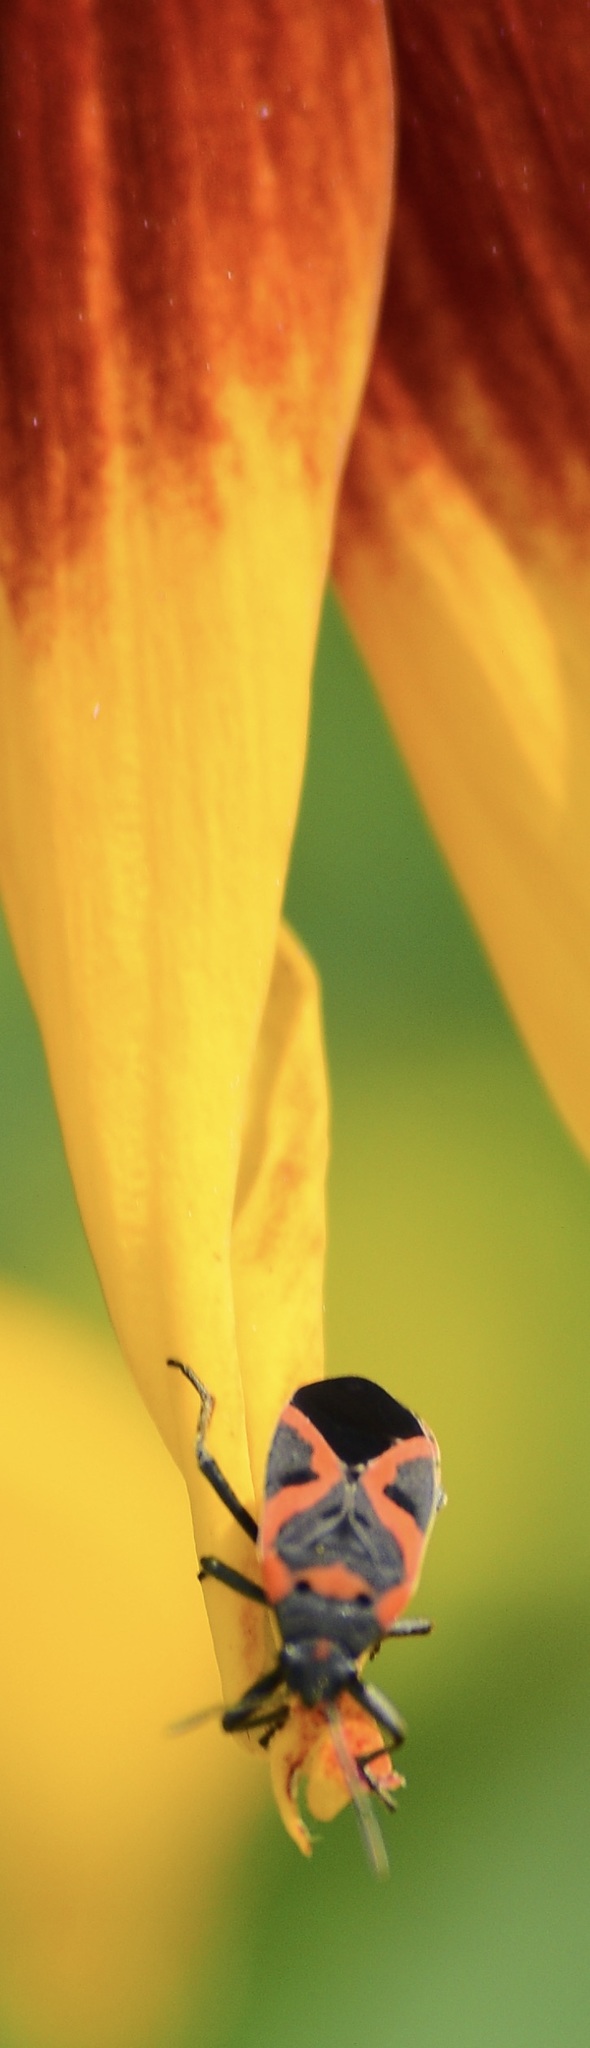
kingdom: Animalia
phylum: Arthropoda
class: Insecta
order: Hemiptera
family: Lygaeidae
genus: Lygaeus
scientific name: Lygaeus kalmii
